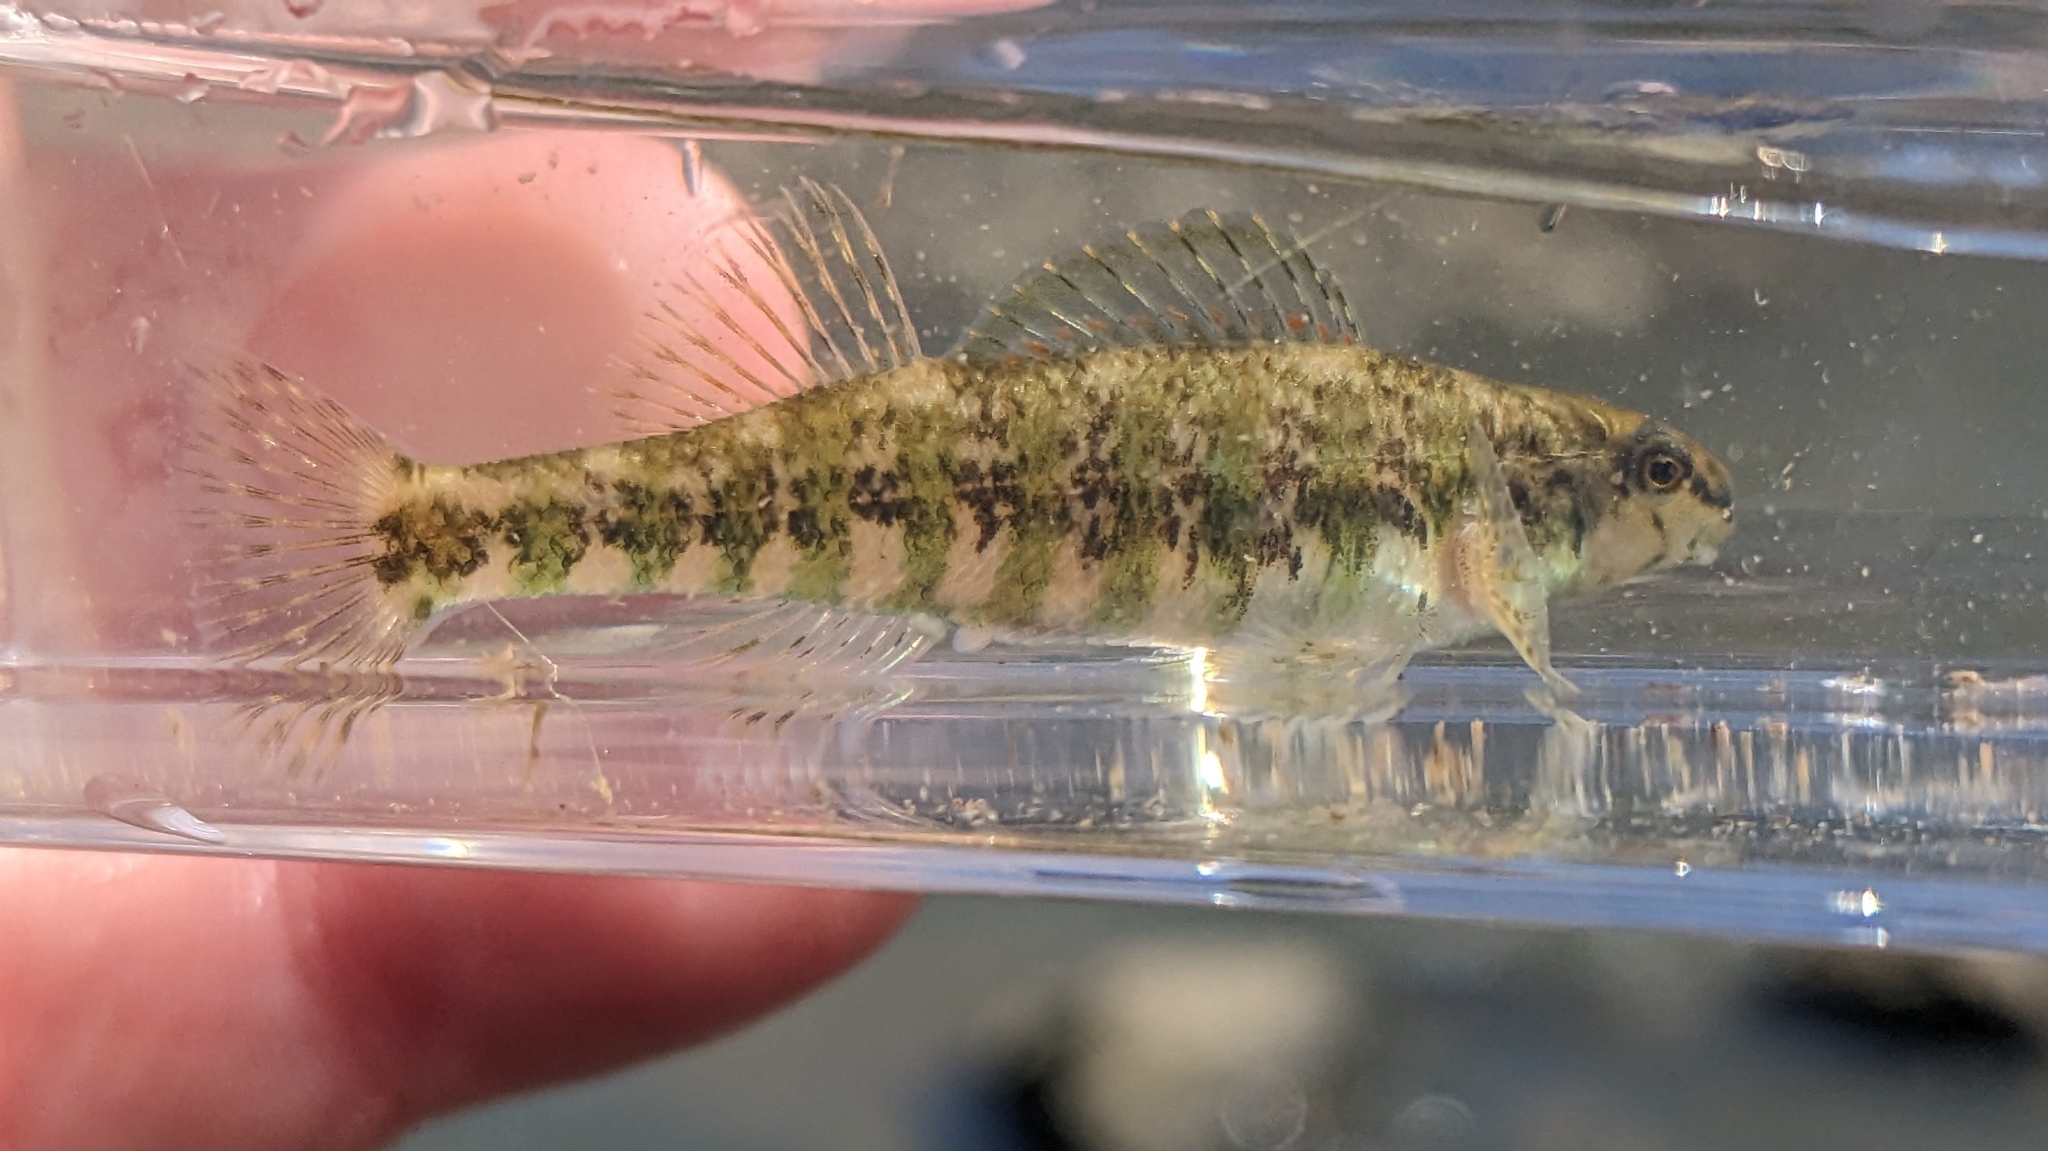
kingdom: Animalia
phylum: Chordata
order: Perciformes
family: Percidae
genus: Etheostoma
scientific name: Etheostoma zonale
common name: Banded darter
